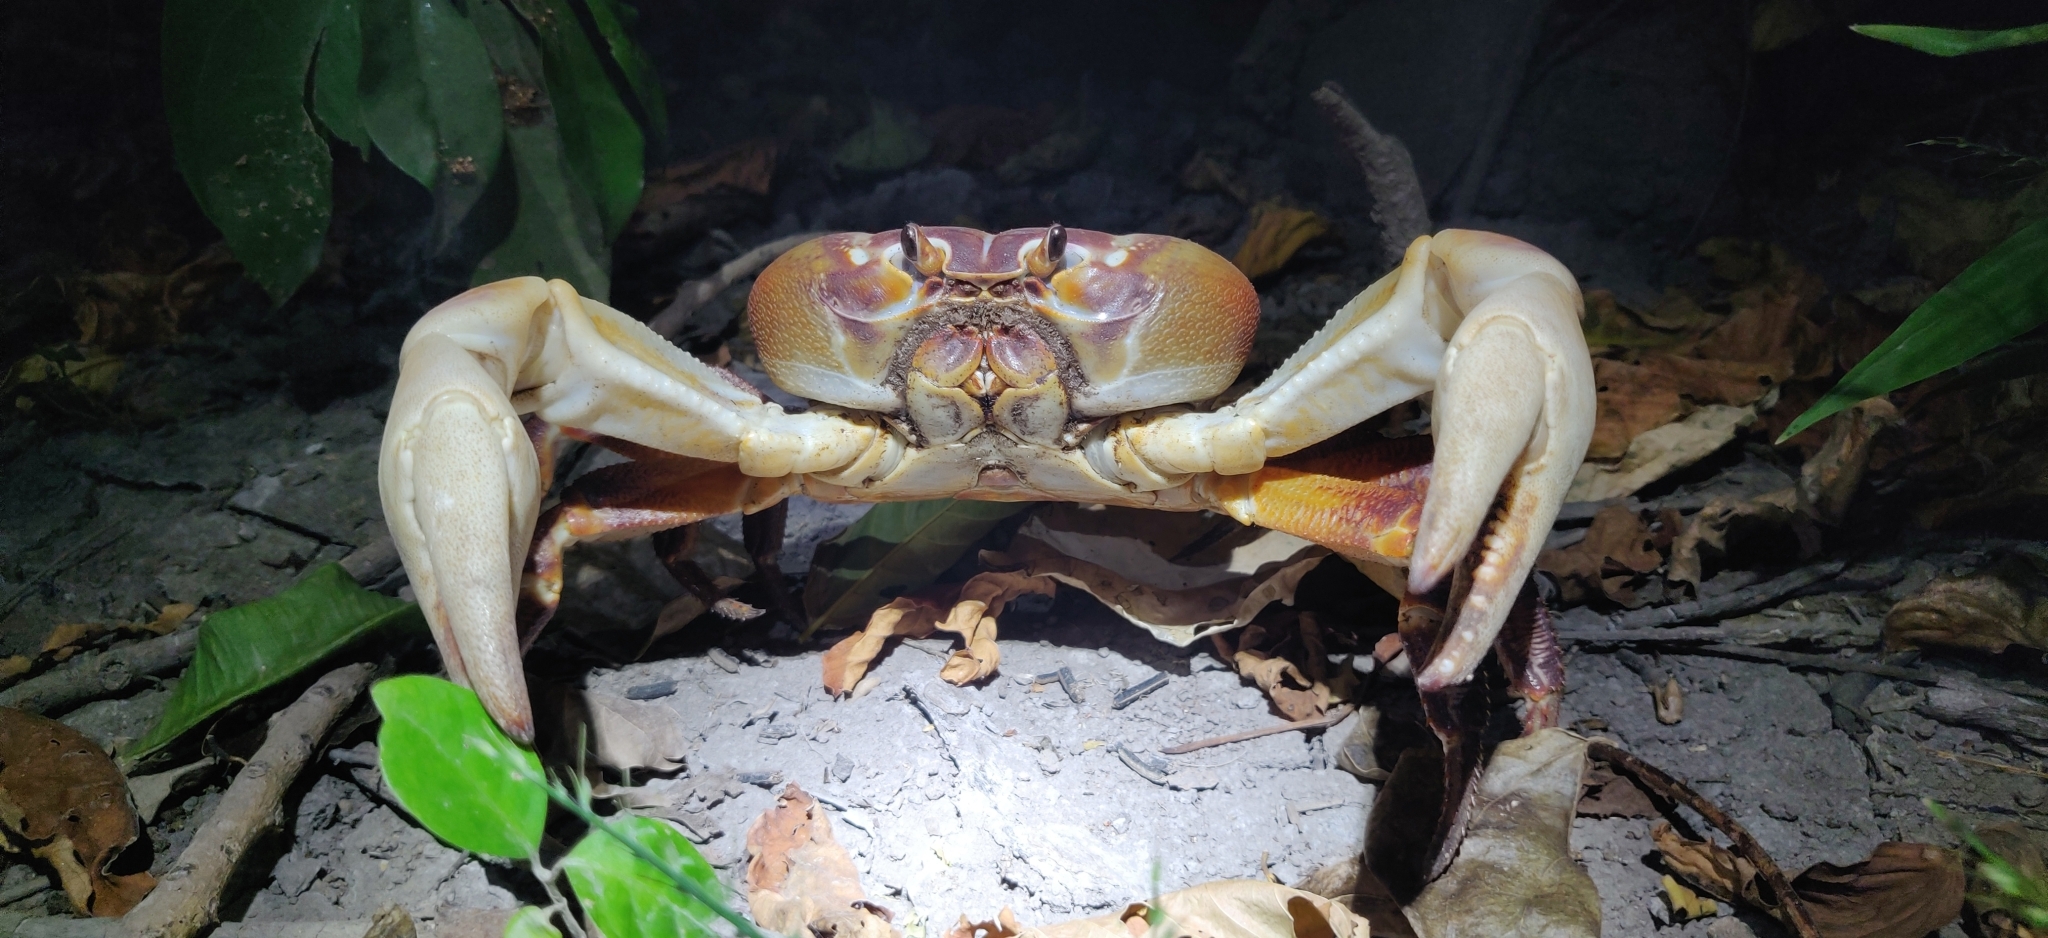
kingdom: Animalia
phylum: Arthropoda
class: Malacostraca
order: Decapoda
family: Gecarcinidae
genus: Gecarcoidea
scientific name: Gecarcoidea humei
